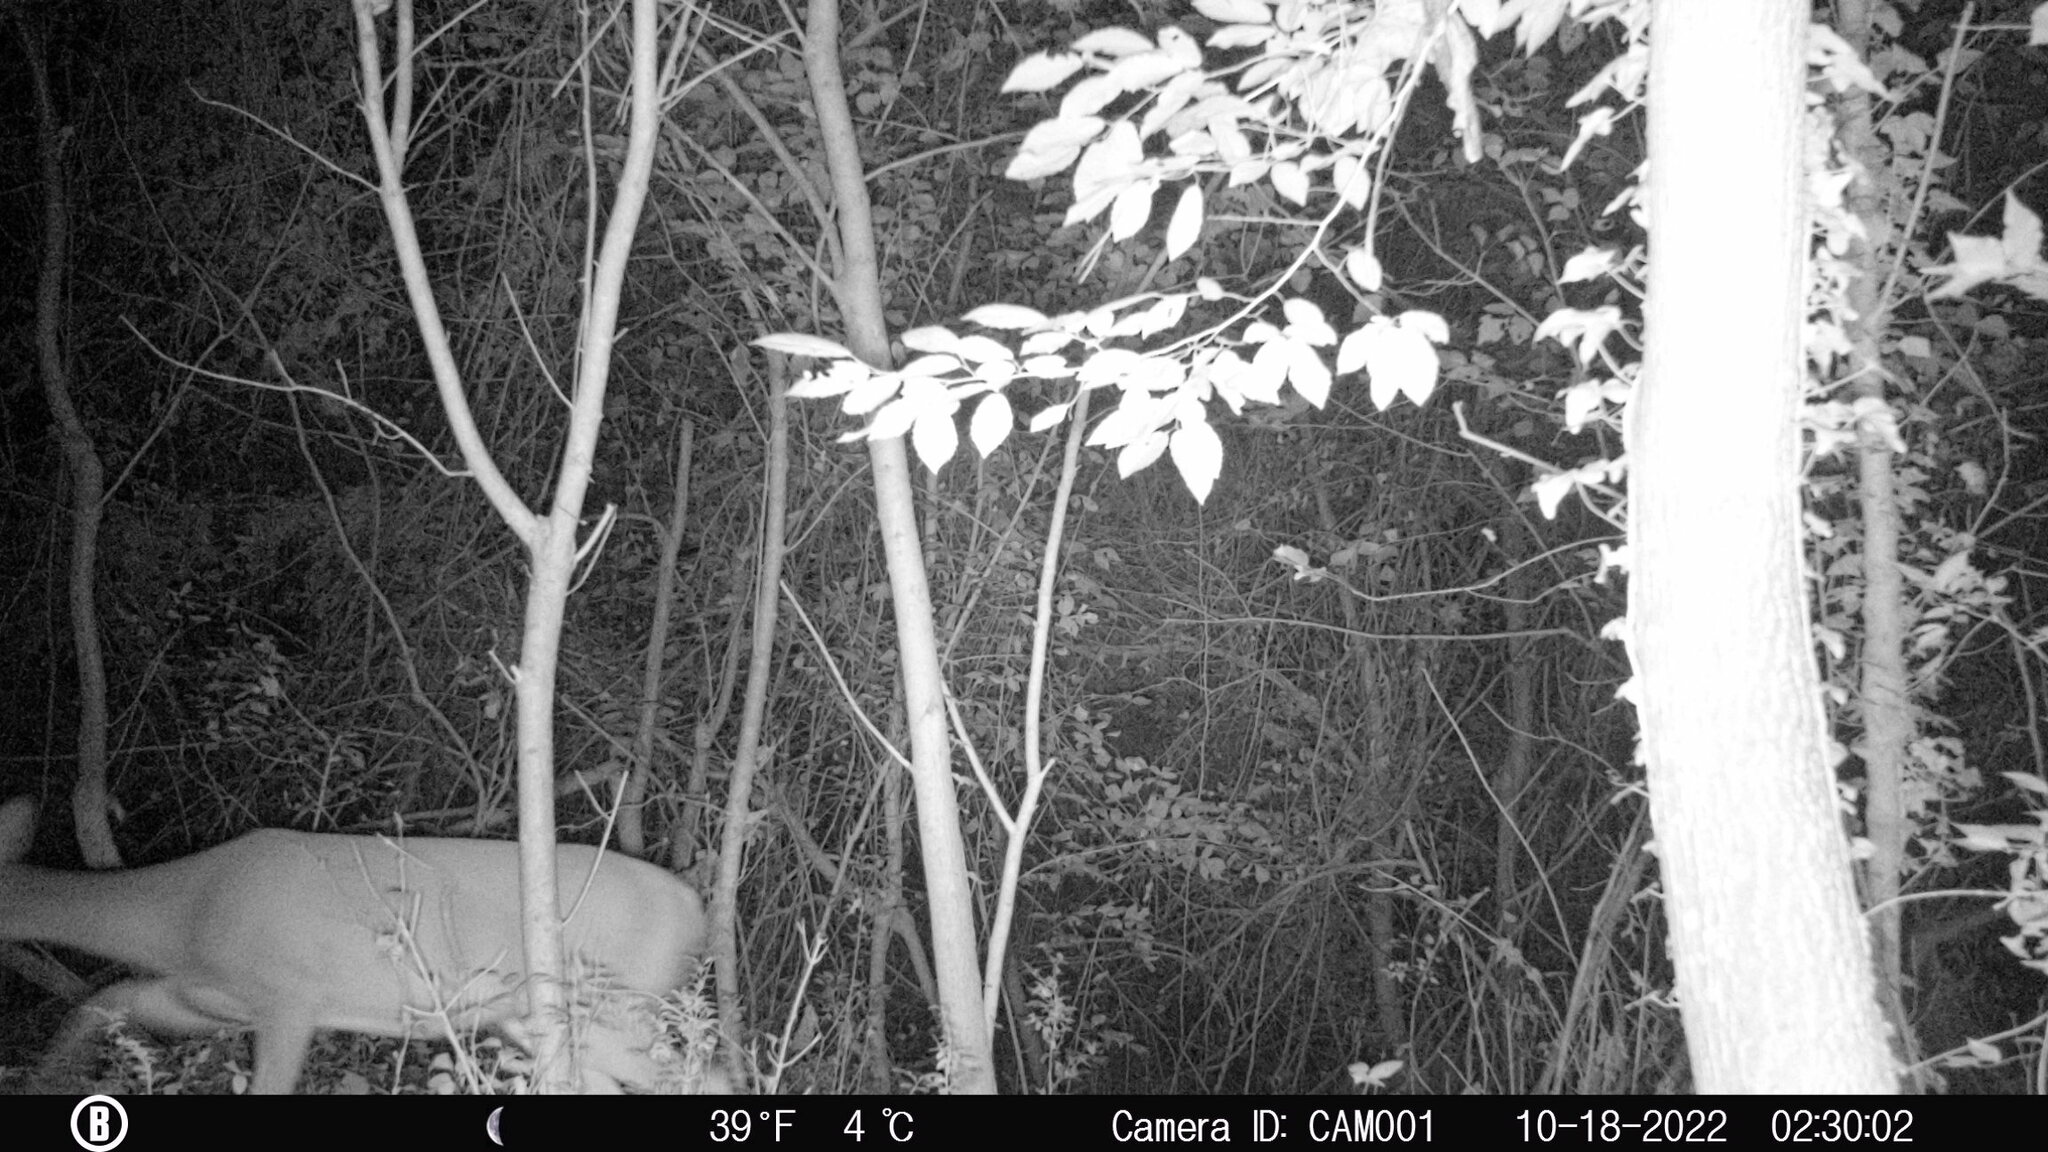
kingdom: Animalia
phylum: Chordata
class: Mammalia
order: Artiodactyla
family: Cervidae
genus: Odocoileus
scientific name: Odocoileus virginianus
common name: White-tailed deer
